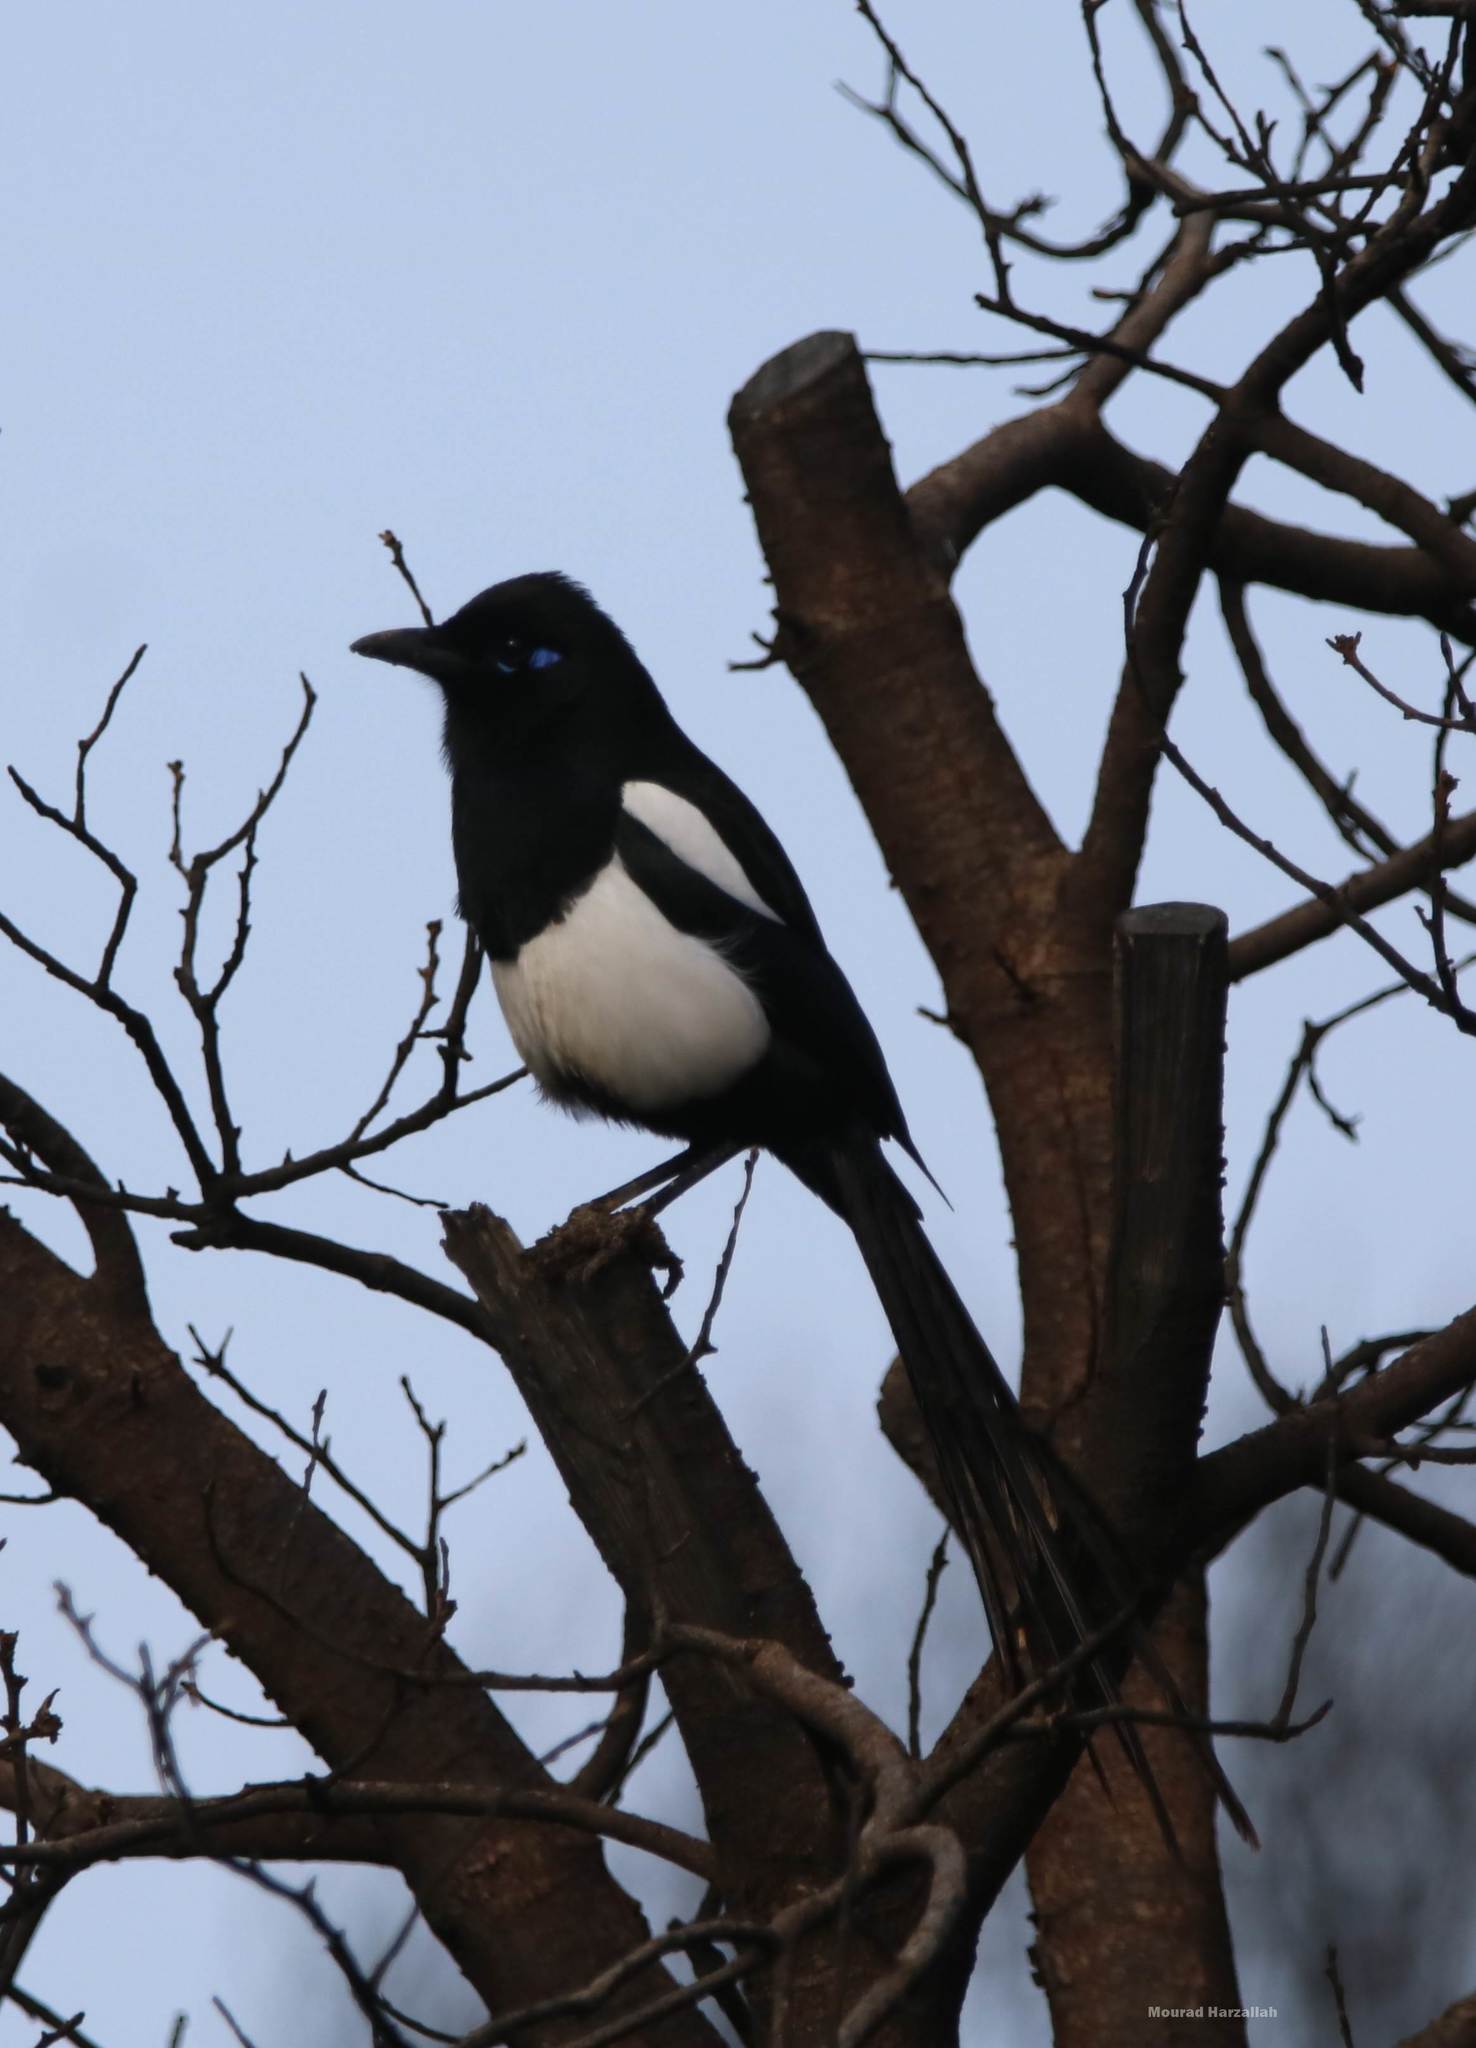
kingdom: Animalia
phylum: Chordata
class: Aves
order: Passeriformes
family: Corvidae
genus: Pica
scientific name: Pica mauritanica
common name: Maghreb magpie
